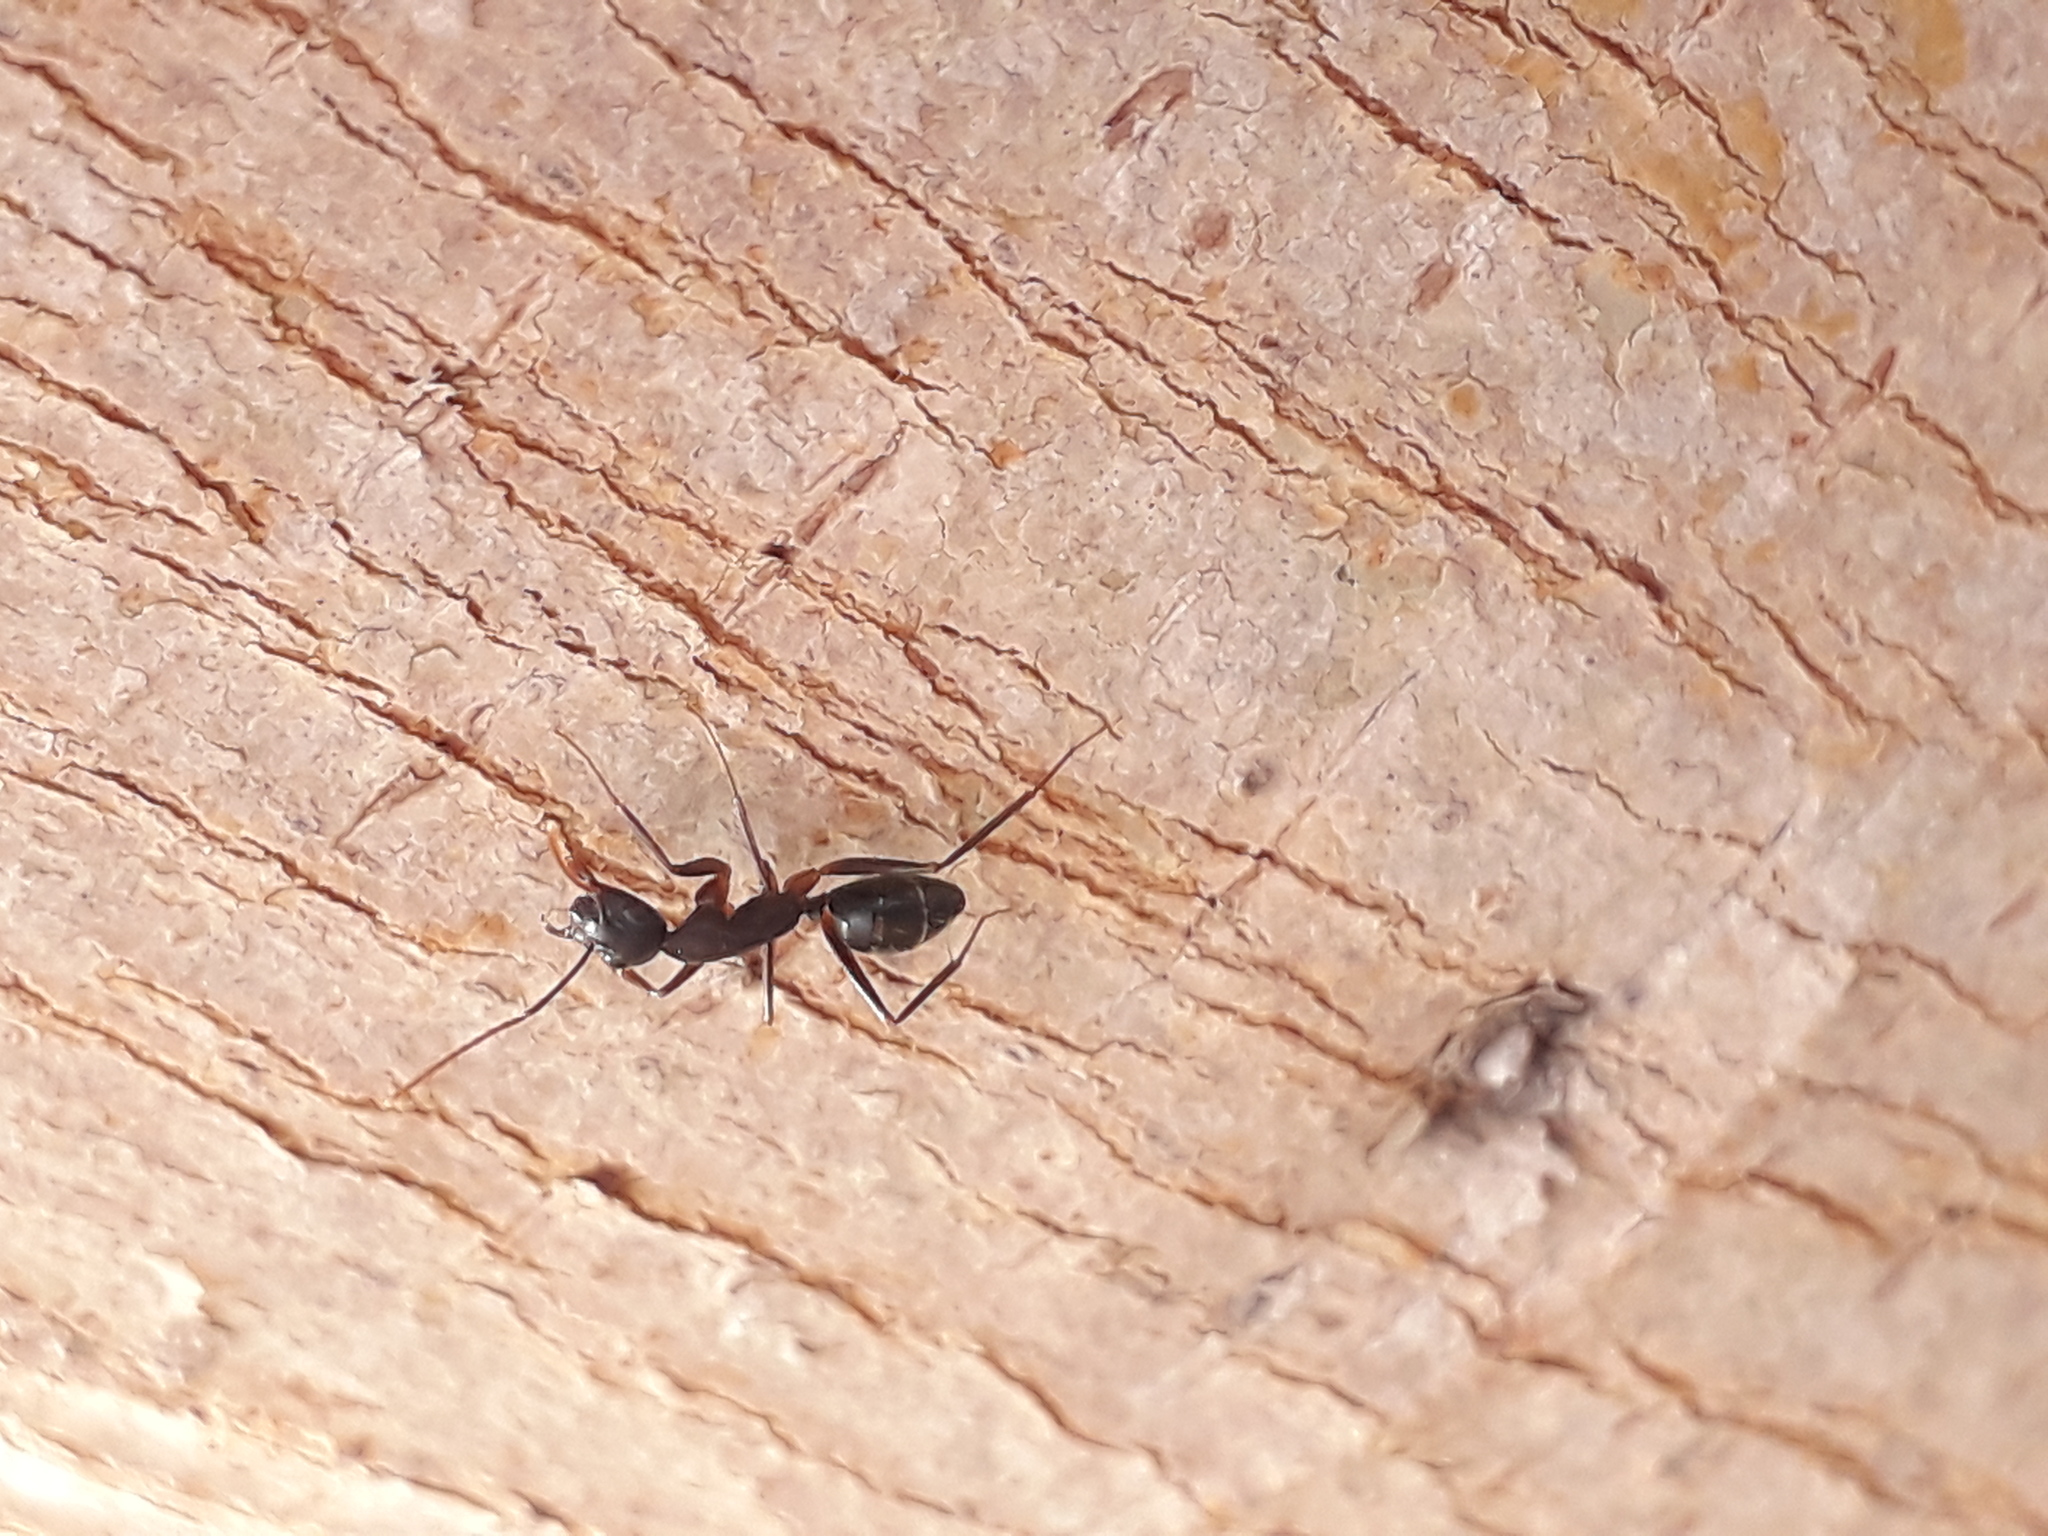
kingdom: Animalia
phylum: Arthropoda
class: Insecta
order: Hymenoptera
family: Formicidae
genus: Camponotus
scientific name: Camponotus compressus
